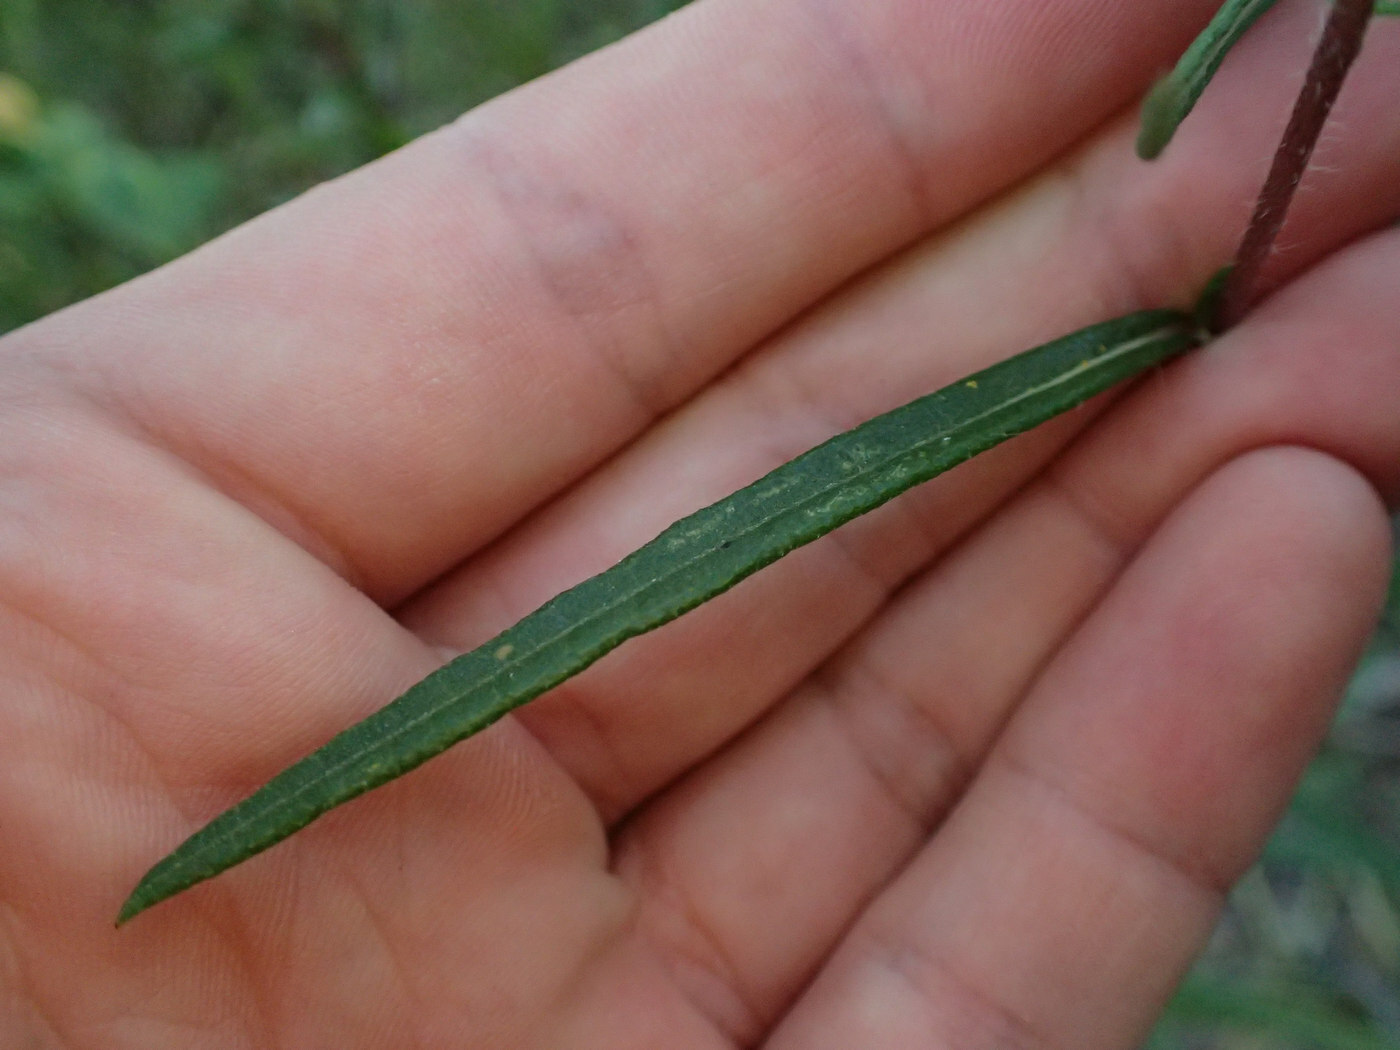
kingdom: Plantae
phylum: Tracheophyta
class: Magnoliopsida
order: Asterales
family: Asteraceae
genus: Helianthus
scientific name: Helianthus angustifolius
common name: Swamp sunflower
